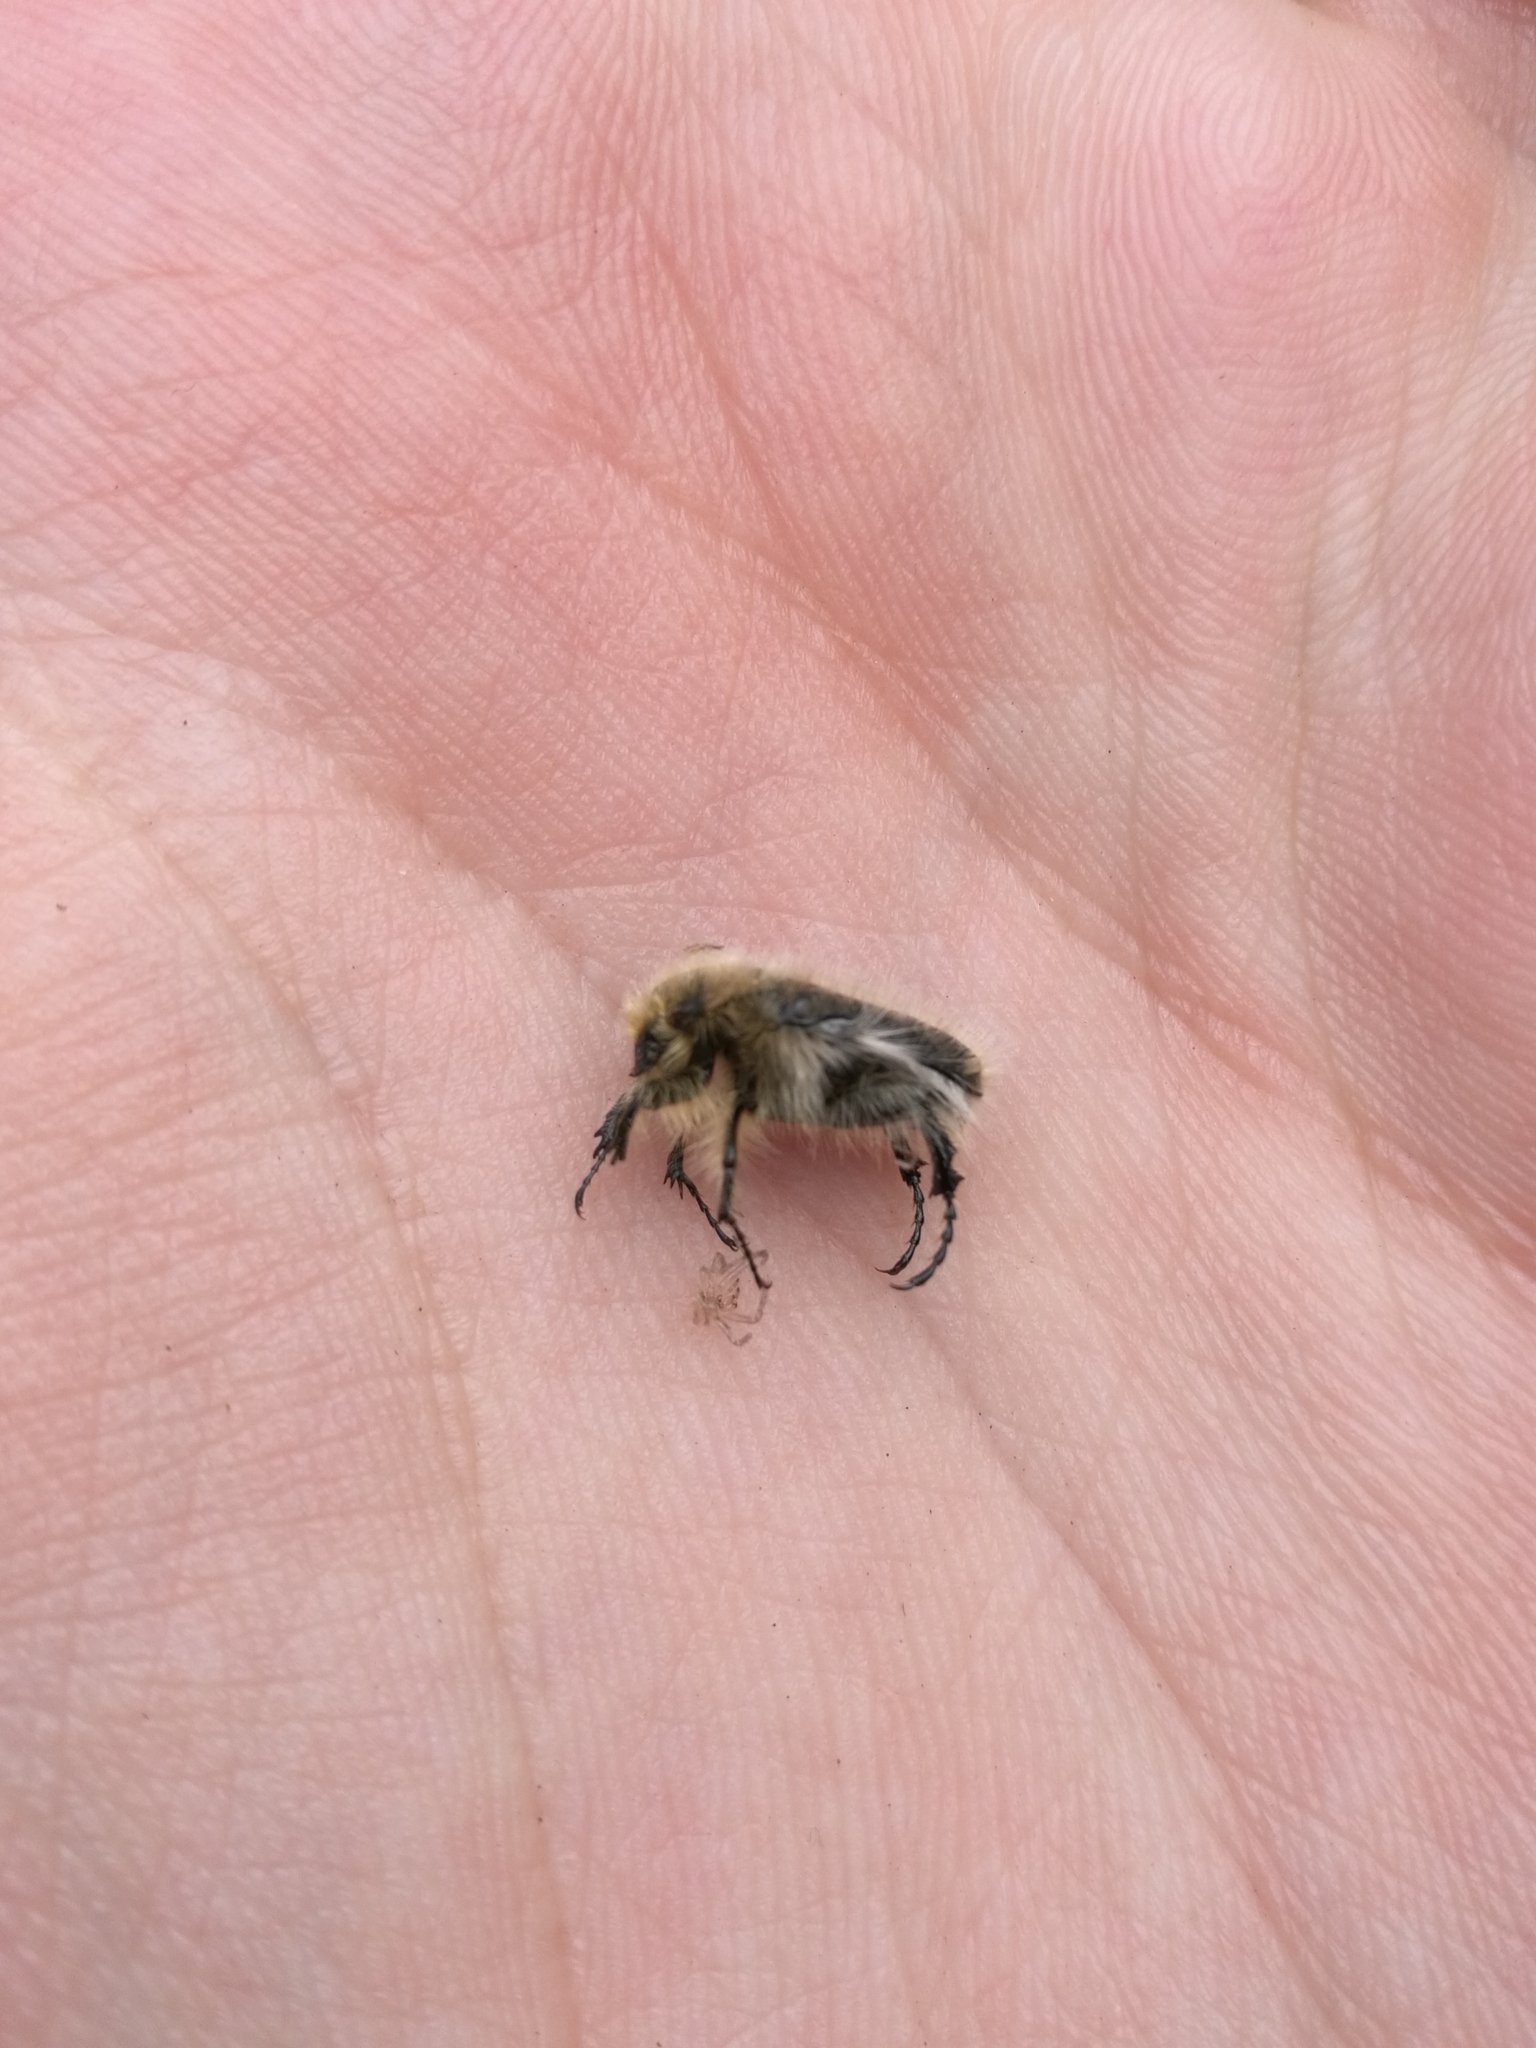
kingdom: Animalia
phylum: Arthropoda
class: Insecta
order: Coleoptera
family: Scarabaeidae
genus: Tropinota
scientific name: Tropinota squalida
